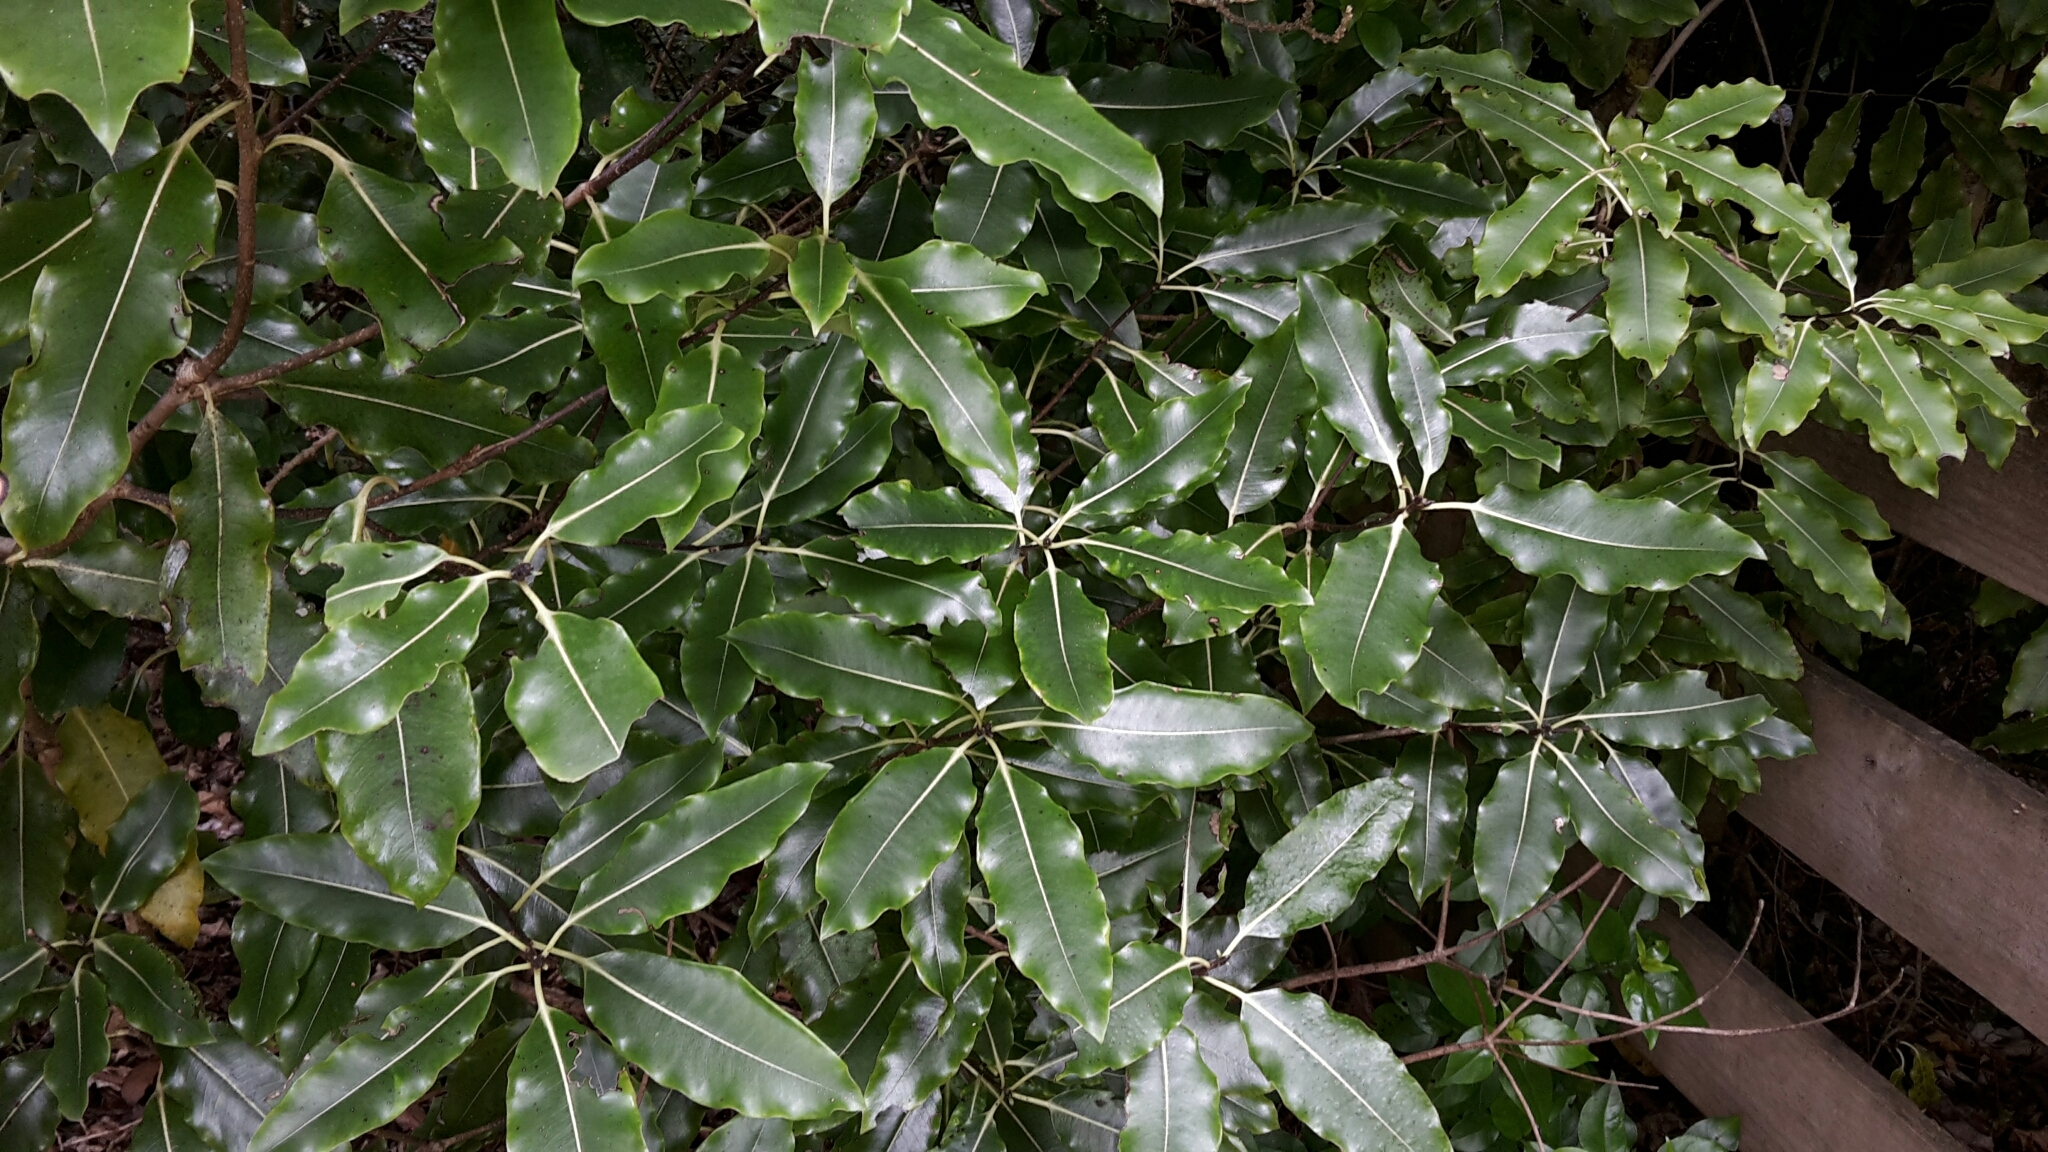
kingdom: Plantae
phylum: Tracheophyta
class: Magnoliopsida
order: Apiales
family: Pittosporaceae
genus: Pittosporum
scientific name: Pittosporum eugenioides
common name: Lemonwood
